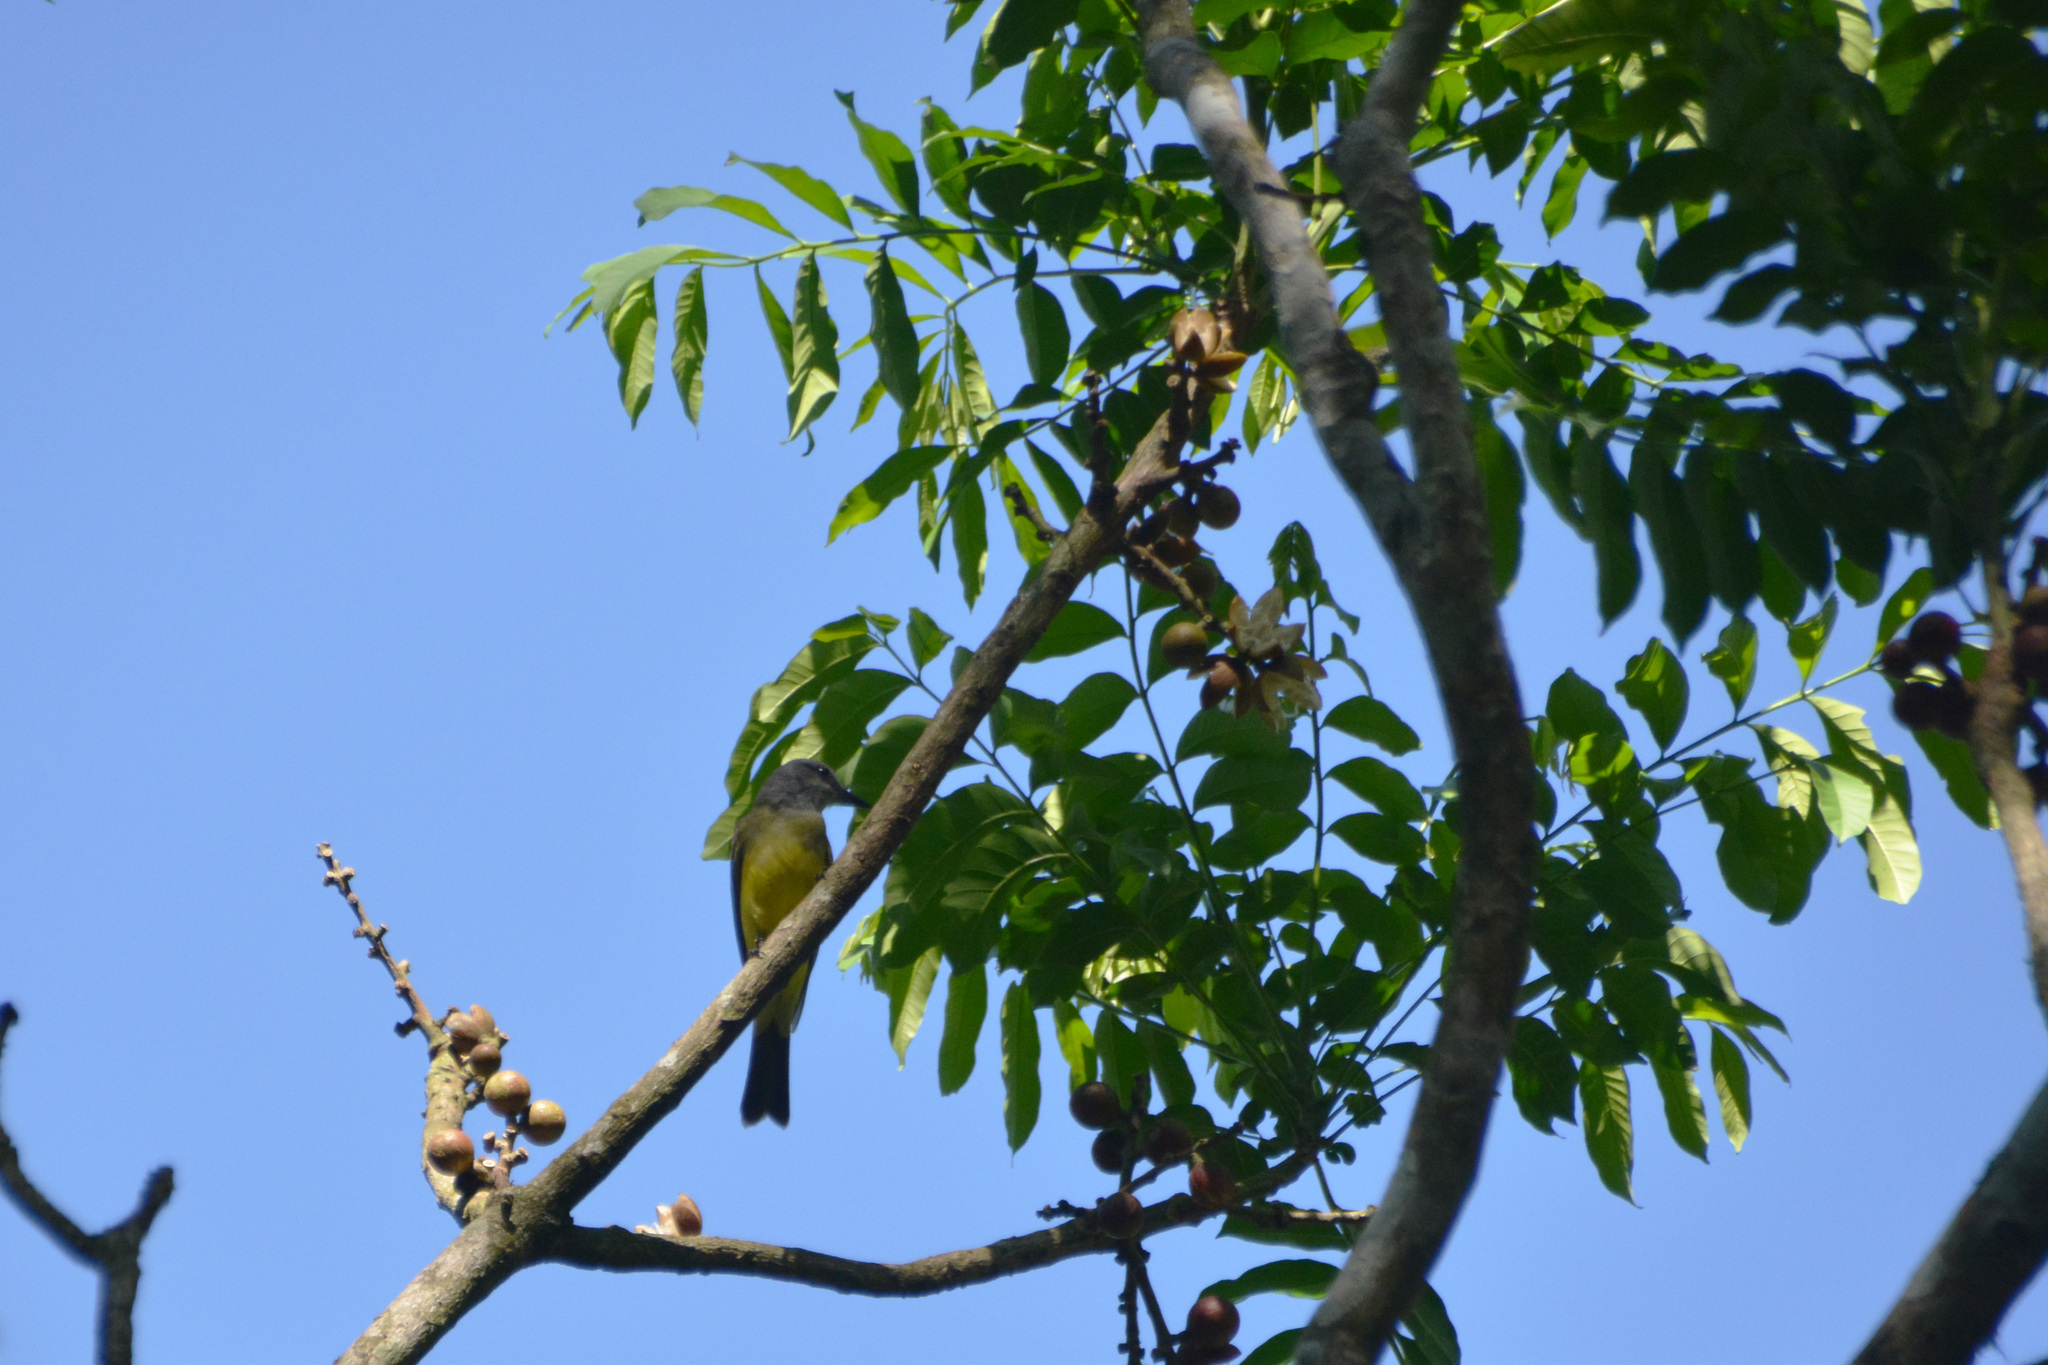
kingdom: Plantae
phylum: Tracheophyta
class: Magnoliopsida
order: Sapindales
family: Meliaceae
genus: Cabralea
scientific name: Cabralea canjerana
